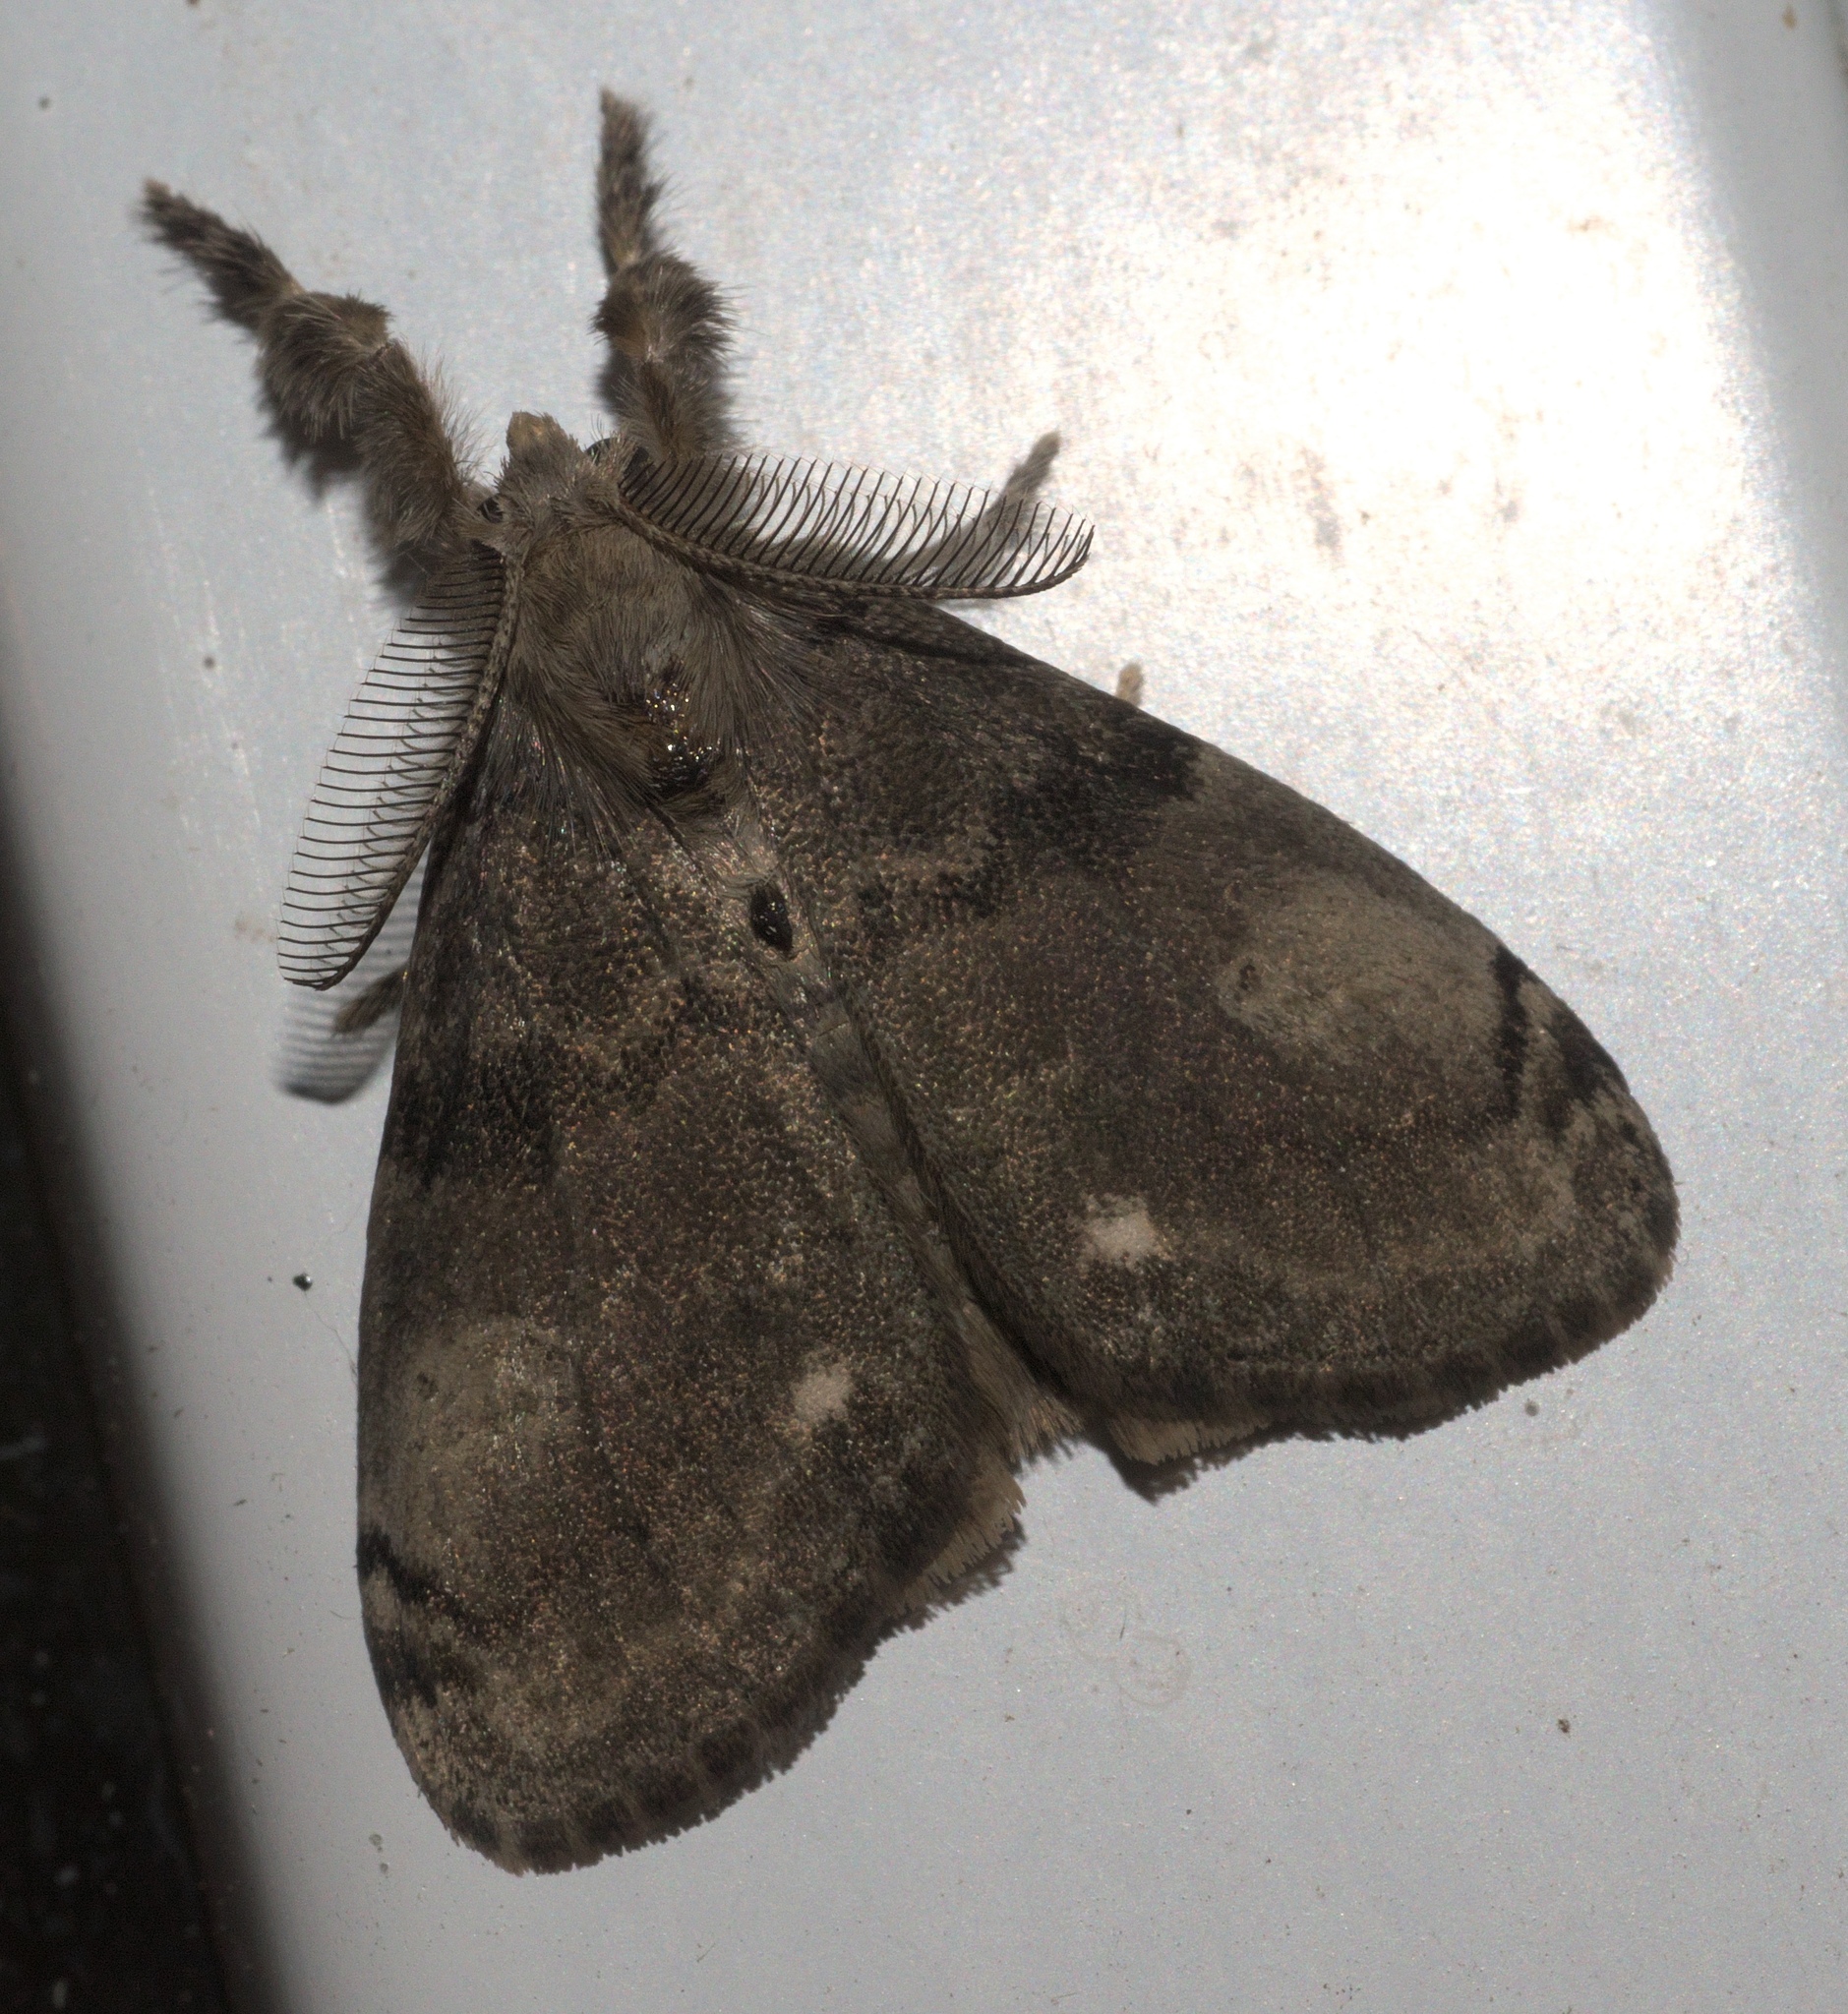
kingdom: Animalia
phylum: Arthropoda
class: Insecta
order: Lepidoptera
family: Erebidae
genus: Orgyia
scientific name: Orgyia leucostigma
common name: White-marked tussock moth
